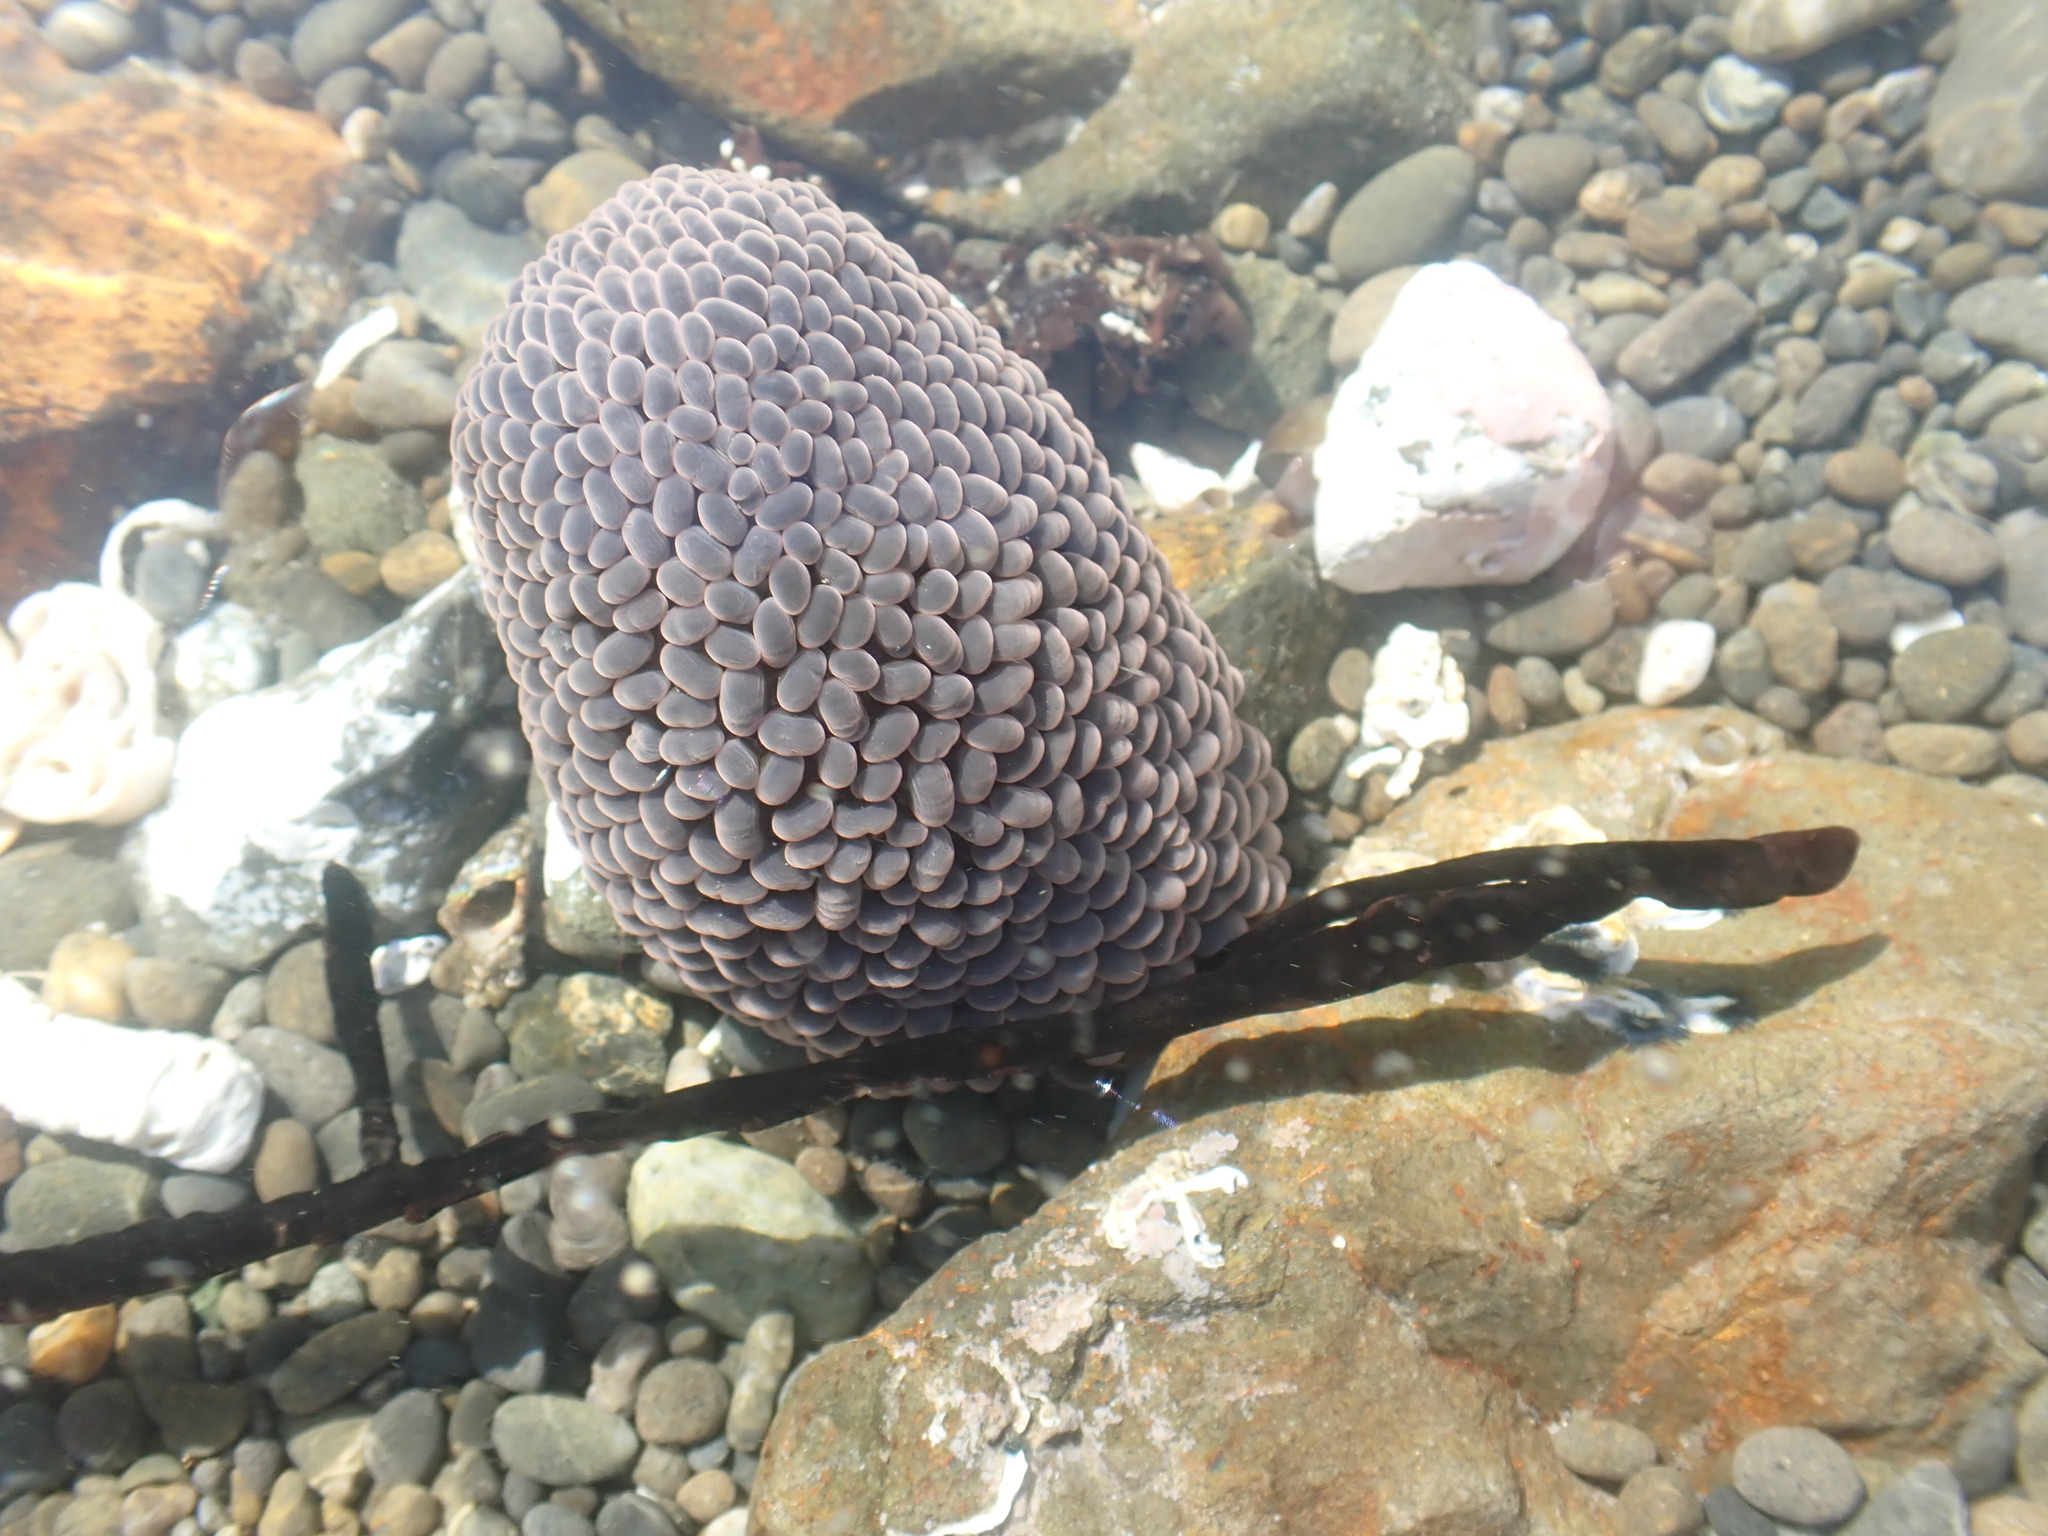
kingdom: Animalia
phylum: Cnidaria
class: Anthozoa
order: Actiniaria
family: Actiniidae
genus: Phlyctenactis
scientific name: Phlyctenactis tuberculosa
